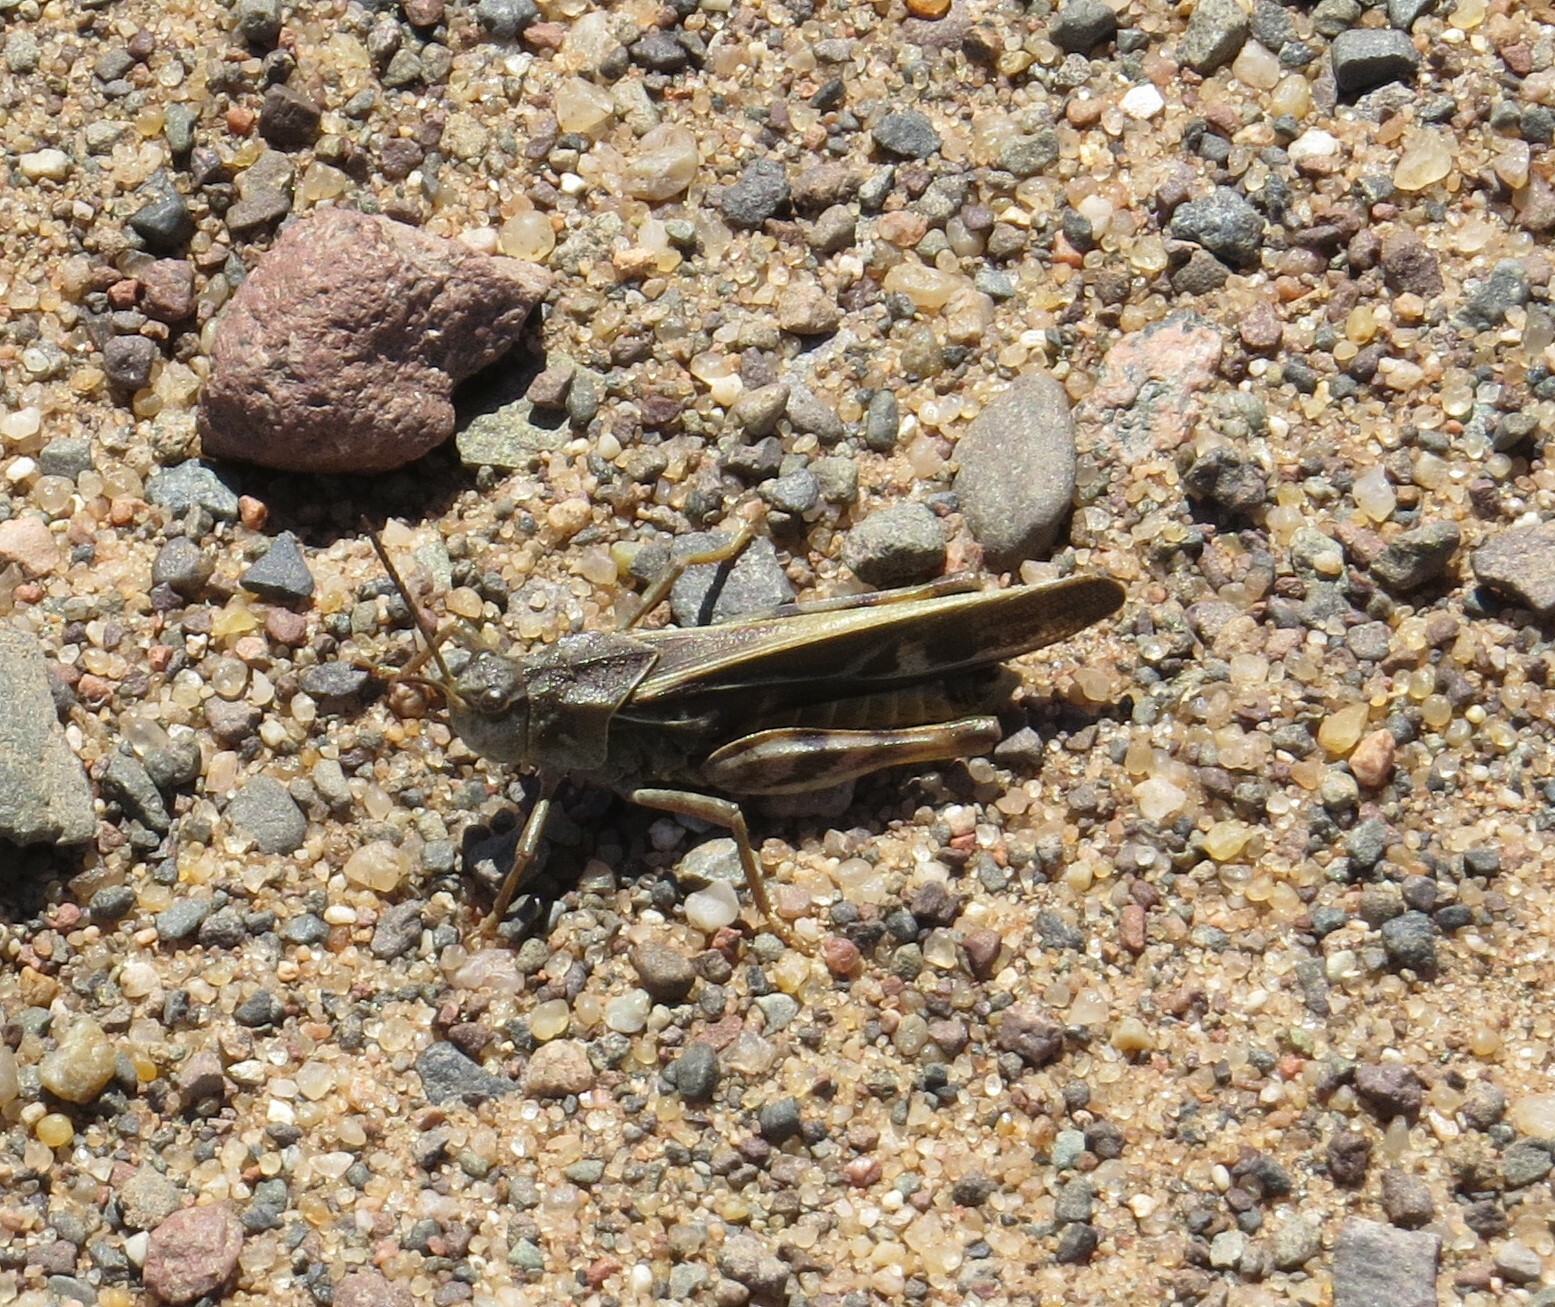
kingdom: Animalia
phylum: Arthropoda
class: Insecta
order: Orthoptera
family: Acrididae
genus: Pardalophora
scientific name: Pardalophora apiculata
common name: Coral-winged locust
